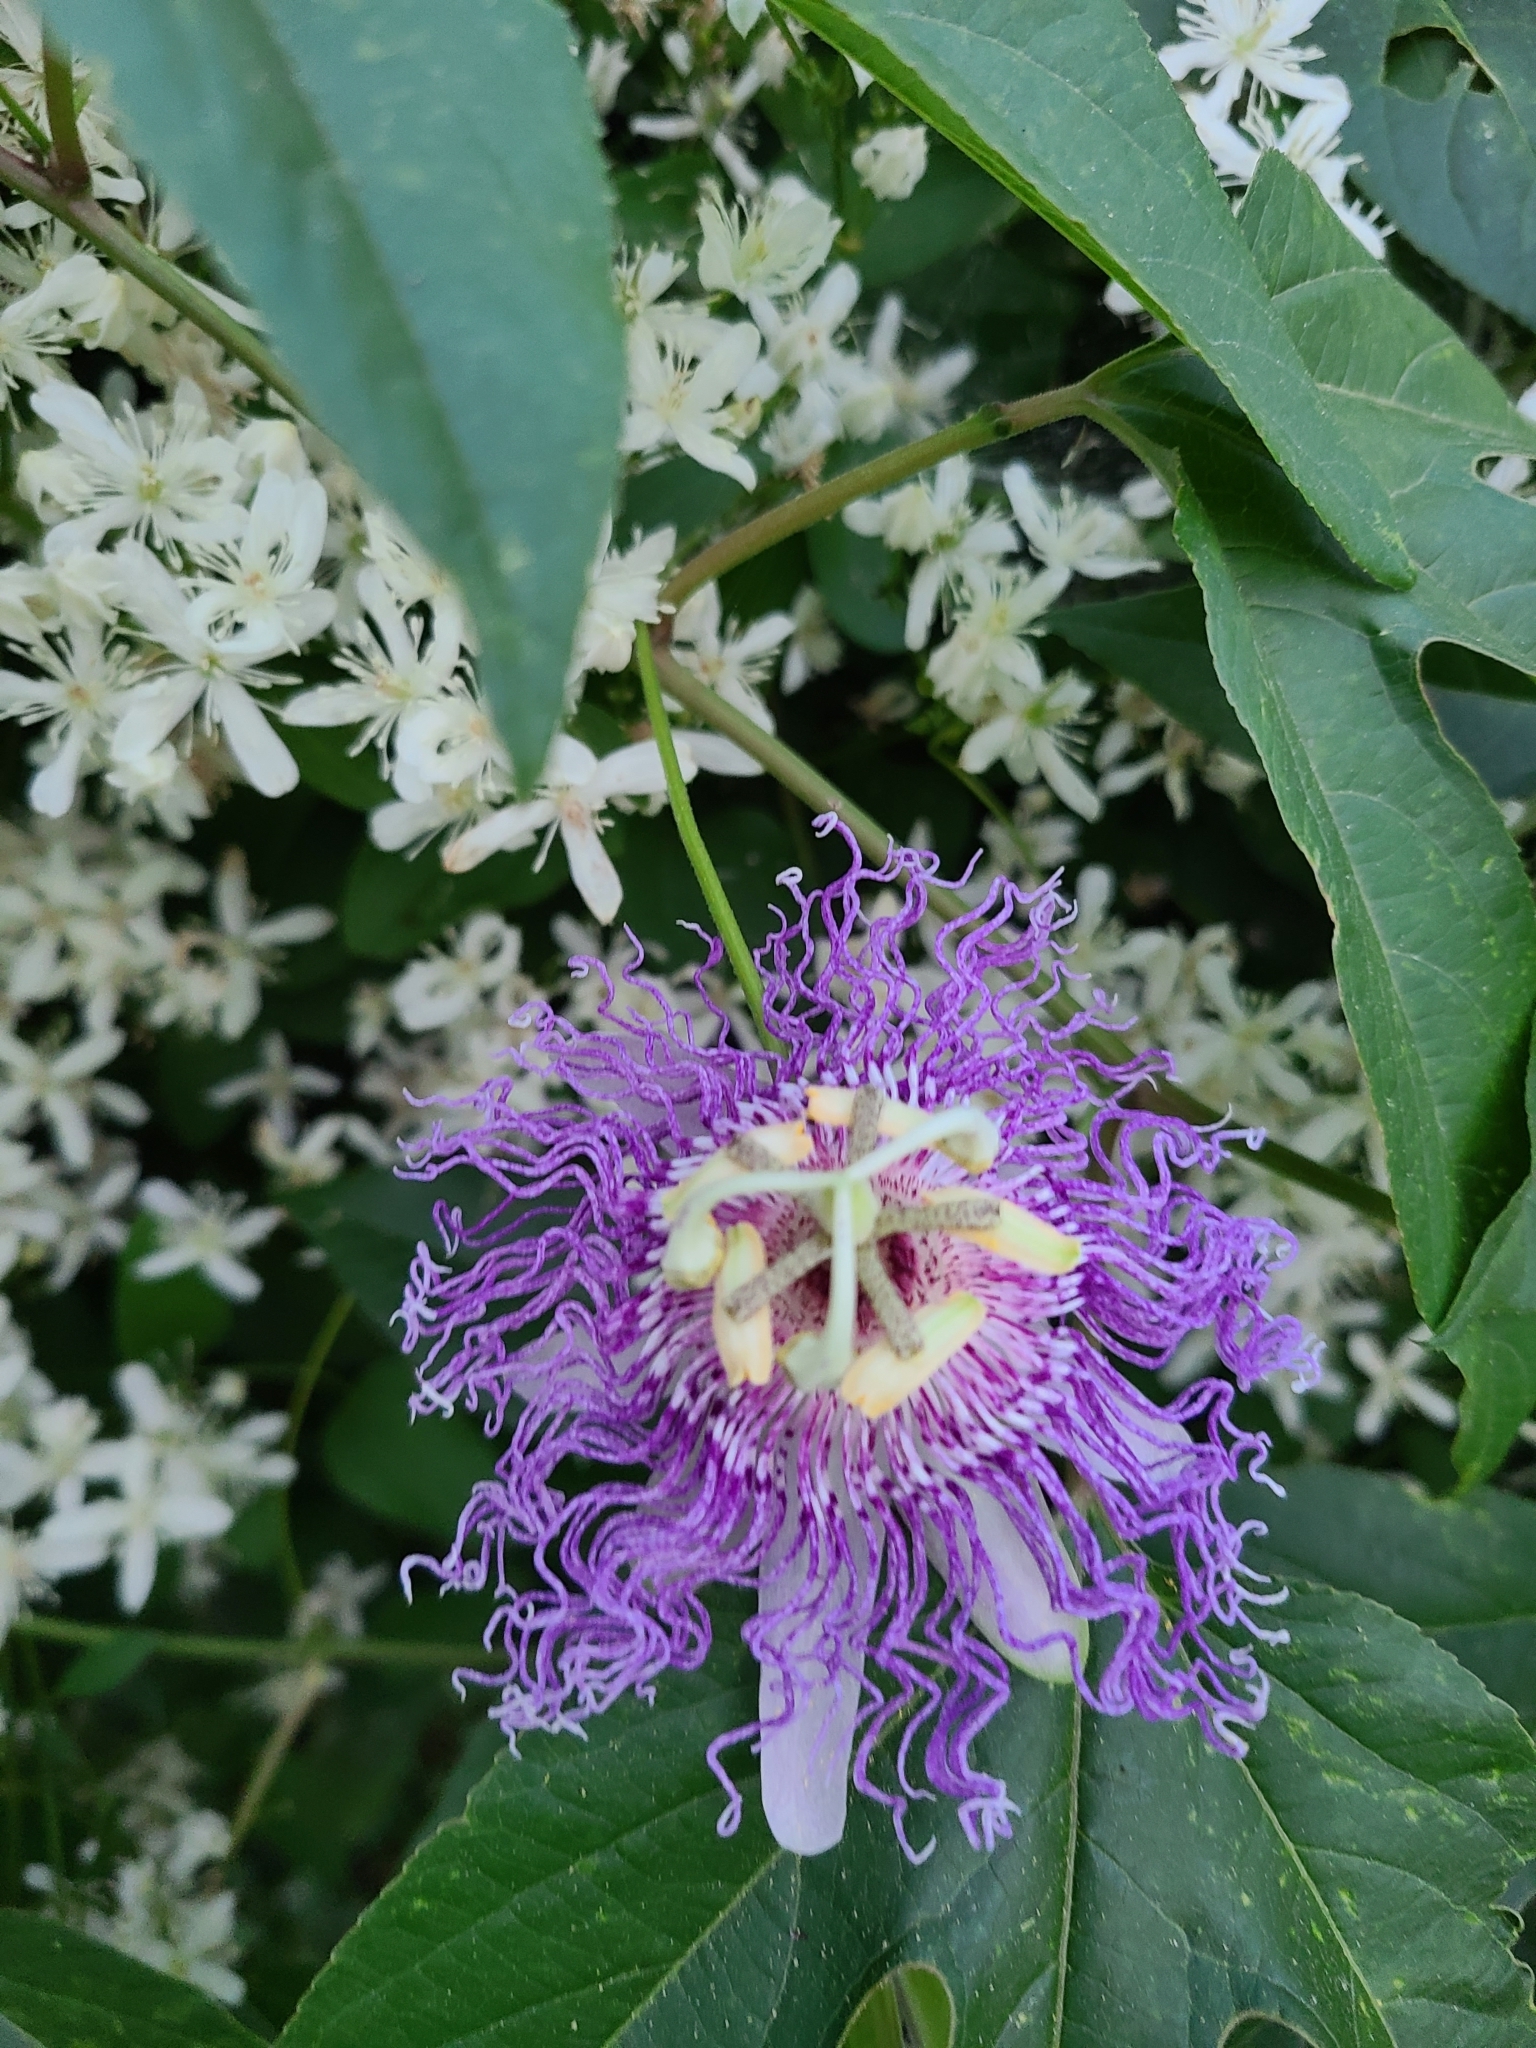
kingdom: Plantae
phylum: Tracheophyta
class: Magnoliopsida
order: Malpighiales
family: Passifloraceae
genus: Passiflora
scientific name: Passiflora incarnata
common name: Apricot-vine
